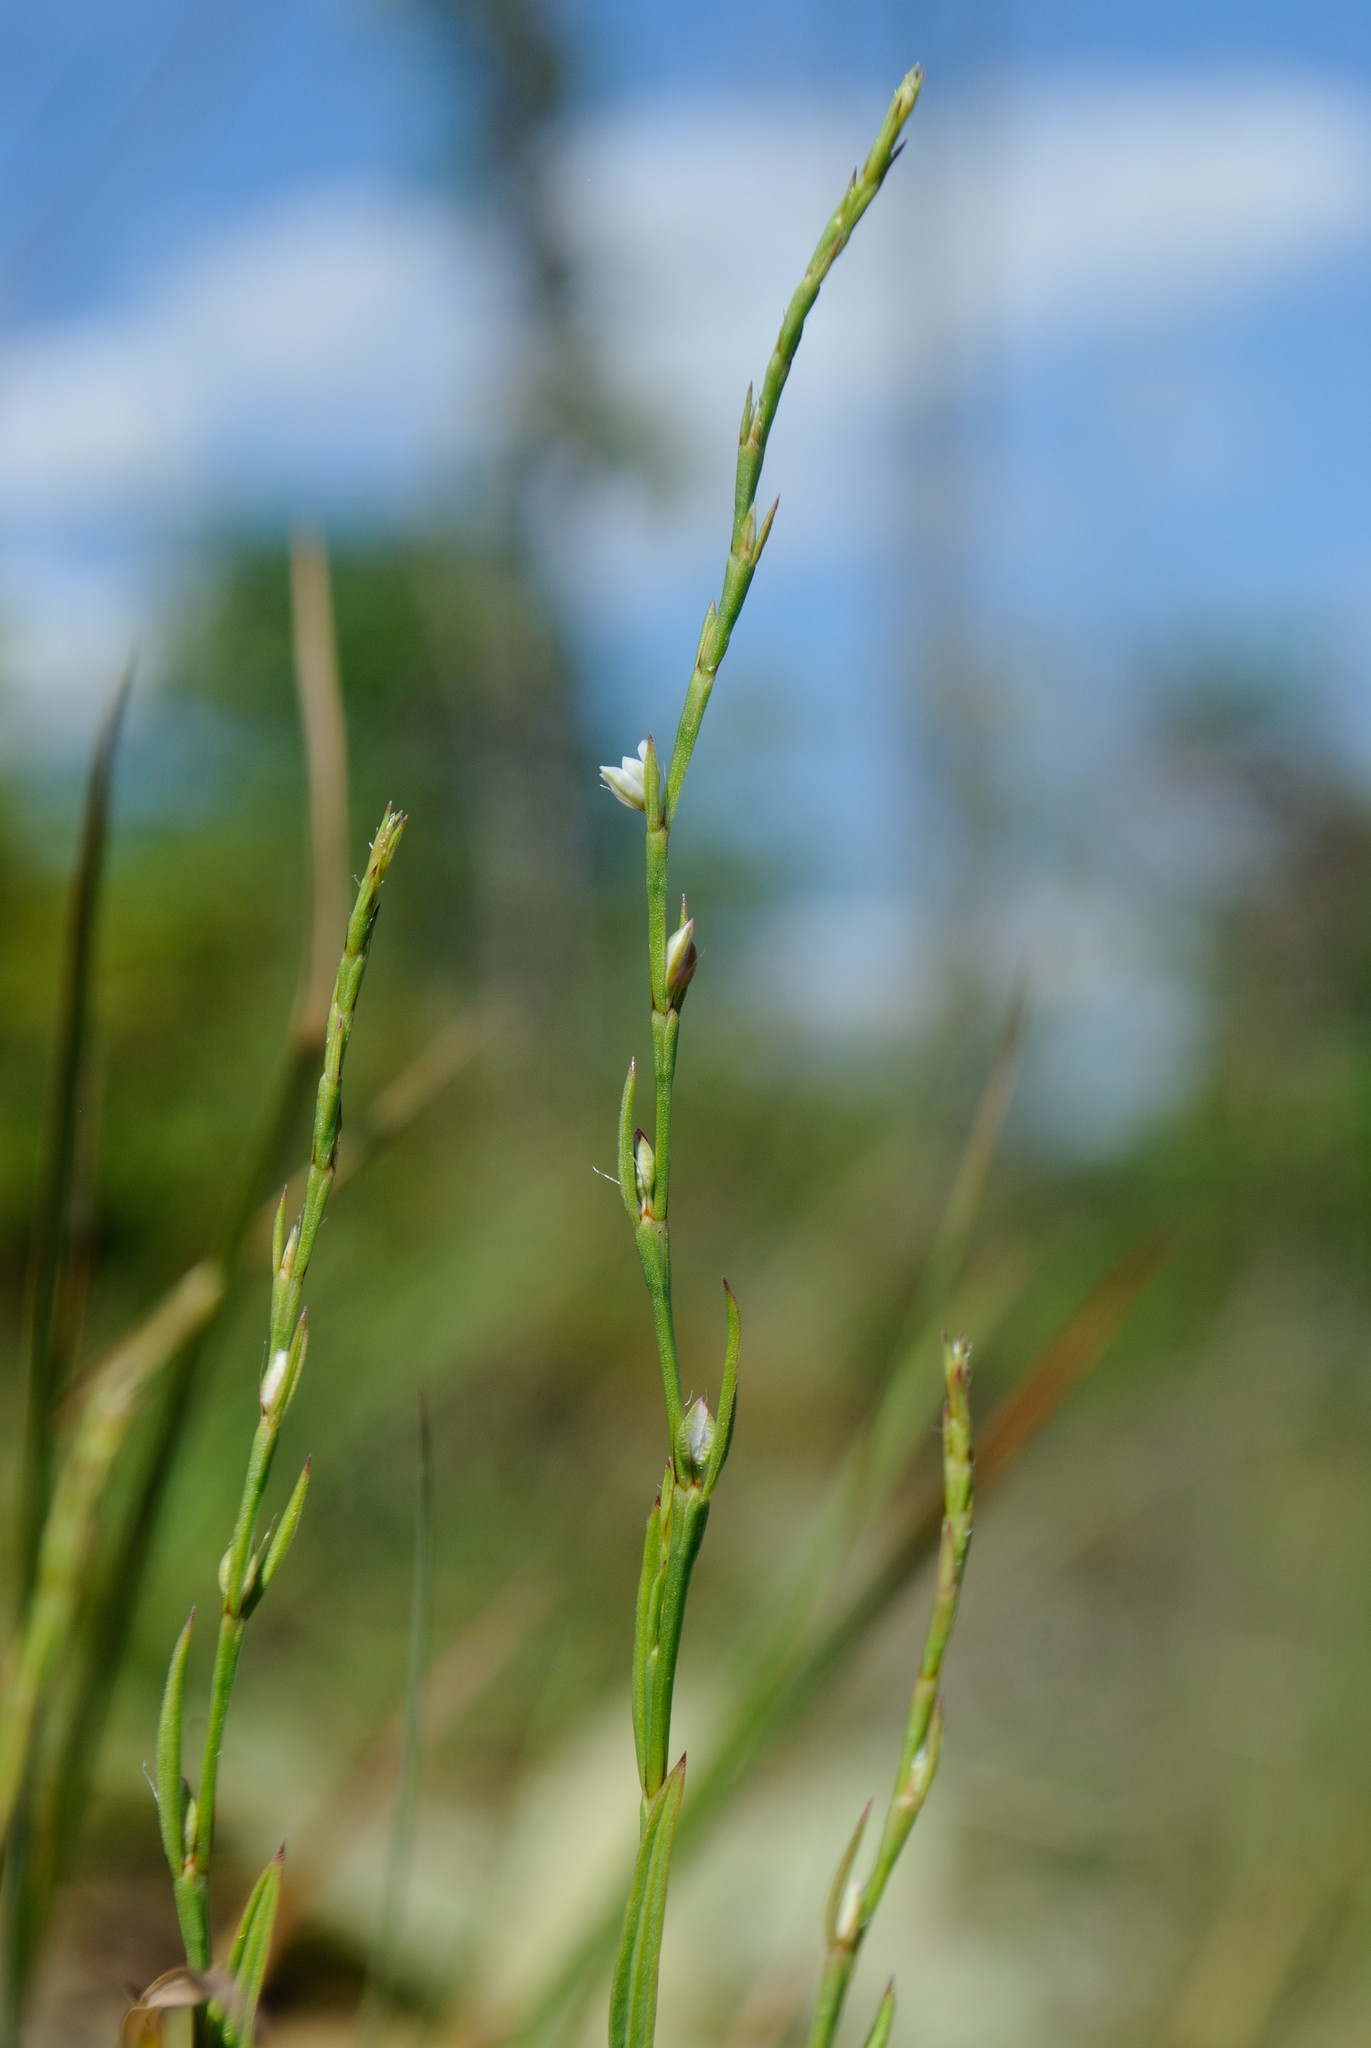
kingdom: Plantae
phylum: Tracheophyta
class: Magnoliopsida
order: Caryophyllales
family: Polygonaceae
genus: Polygonum
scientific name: Polygonum tenue
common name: Pleat-leaved knotweed
